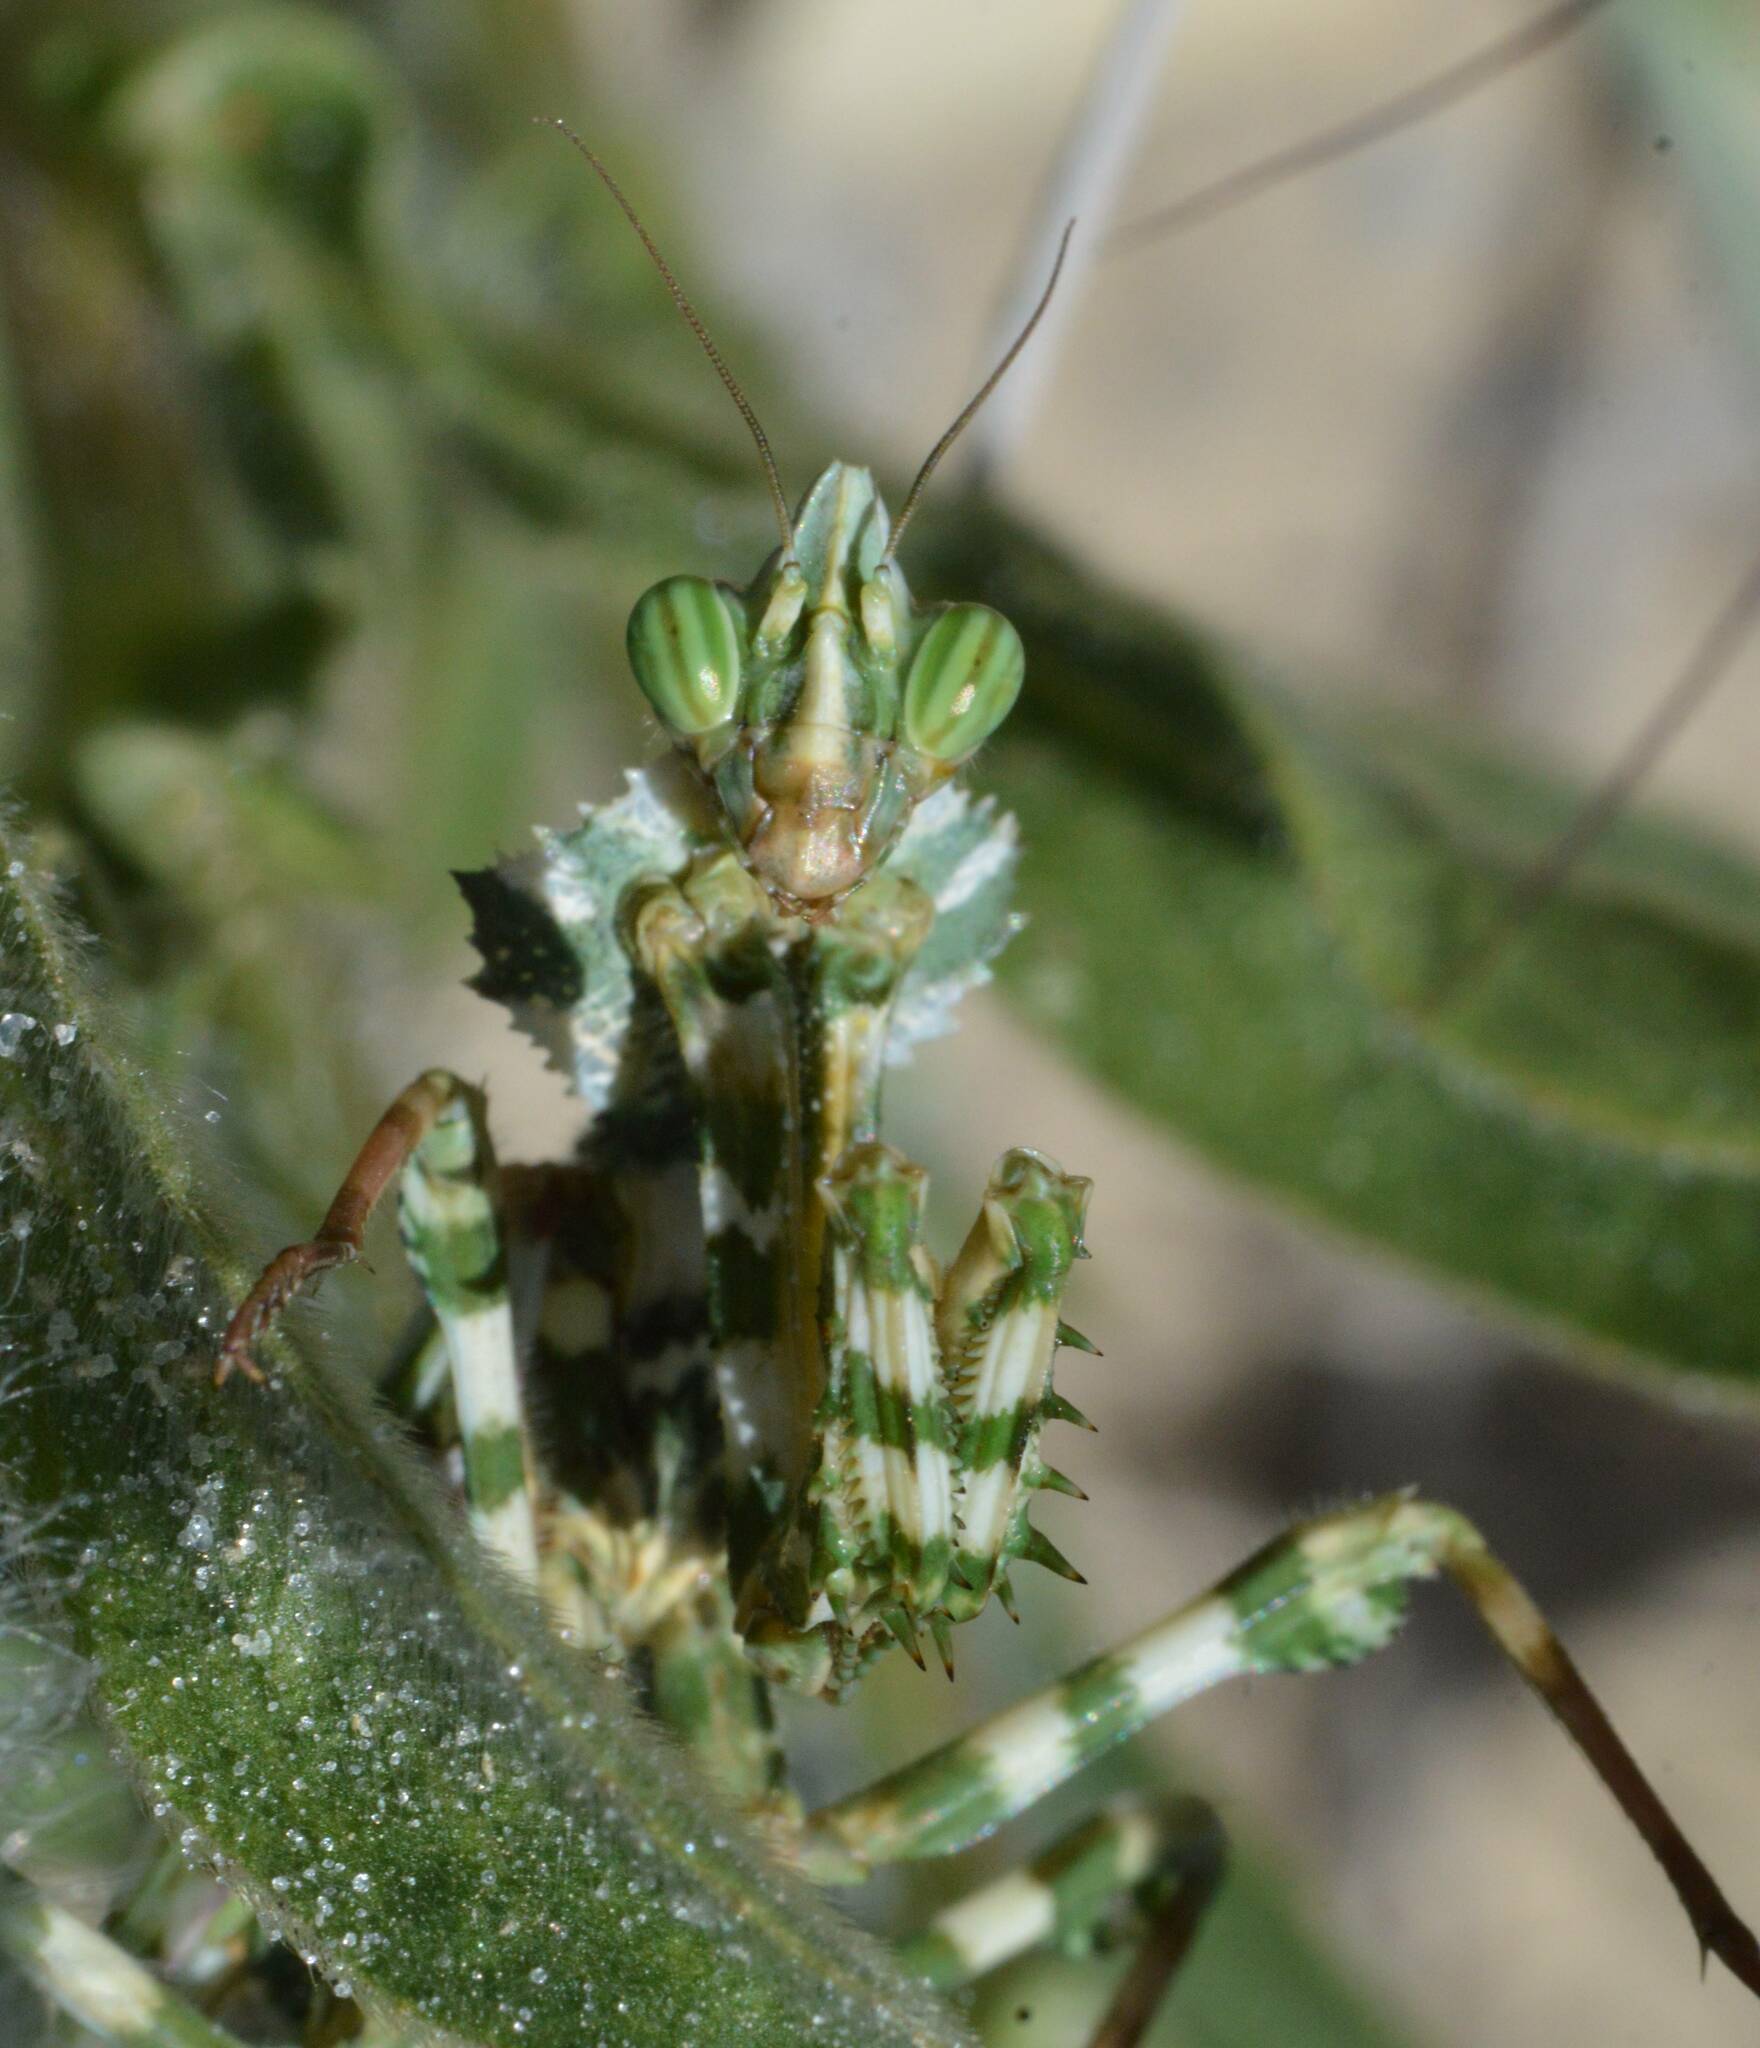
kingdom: Animalia
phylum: Arthropoda
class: Insecta
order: Mantodea
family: Empusidae
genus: Blepharopsis
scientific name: Blepharopsis mendica
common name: Devil's flower mantis
